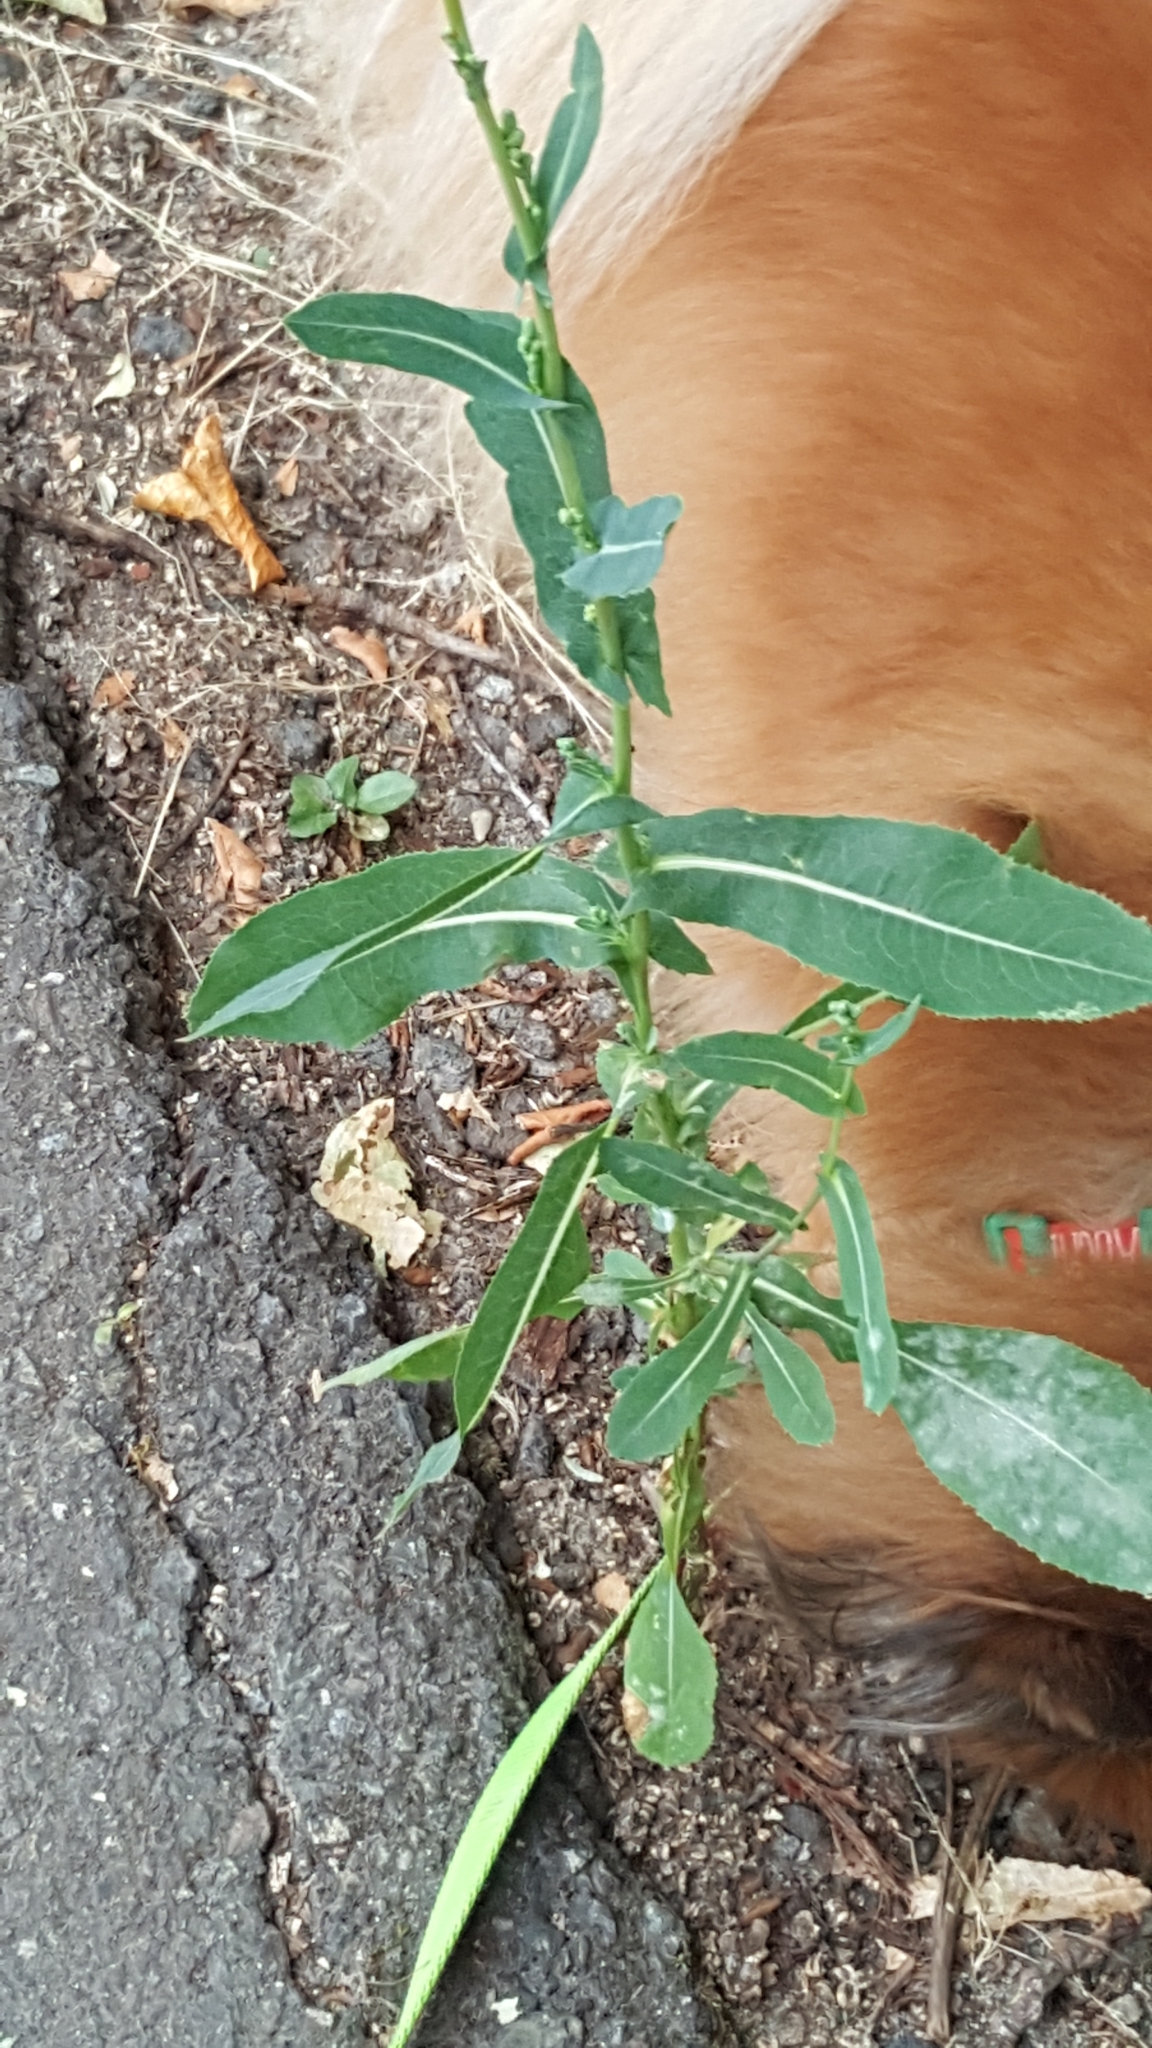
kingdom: Plantae
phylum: Tracheophyta
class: Magnoliopsida
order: Asterales
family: Asteraceae
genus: Lactuca
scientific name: Lactuca serriola
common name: Prickly lettuce
